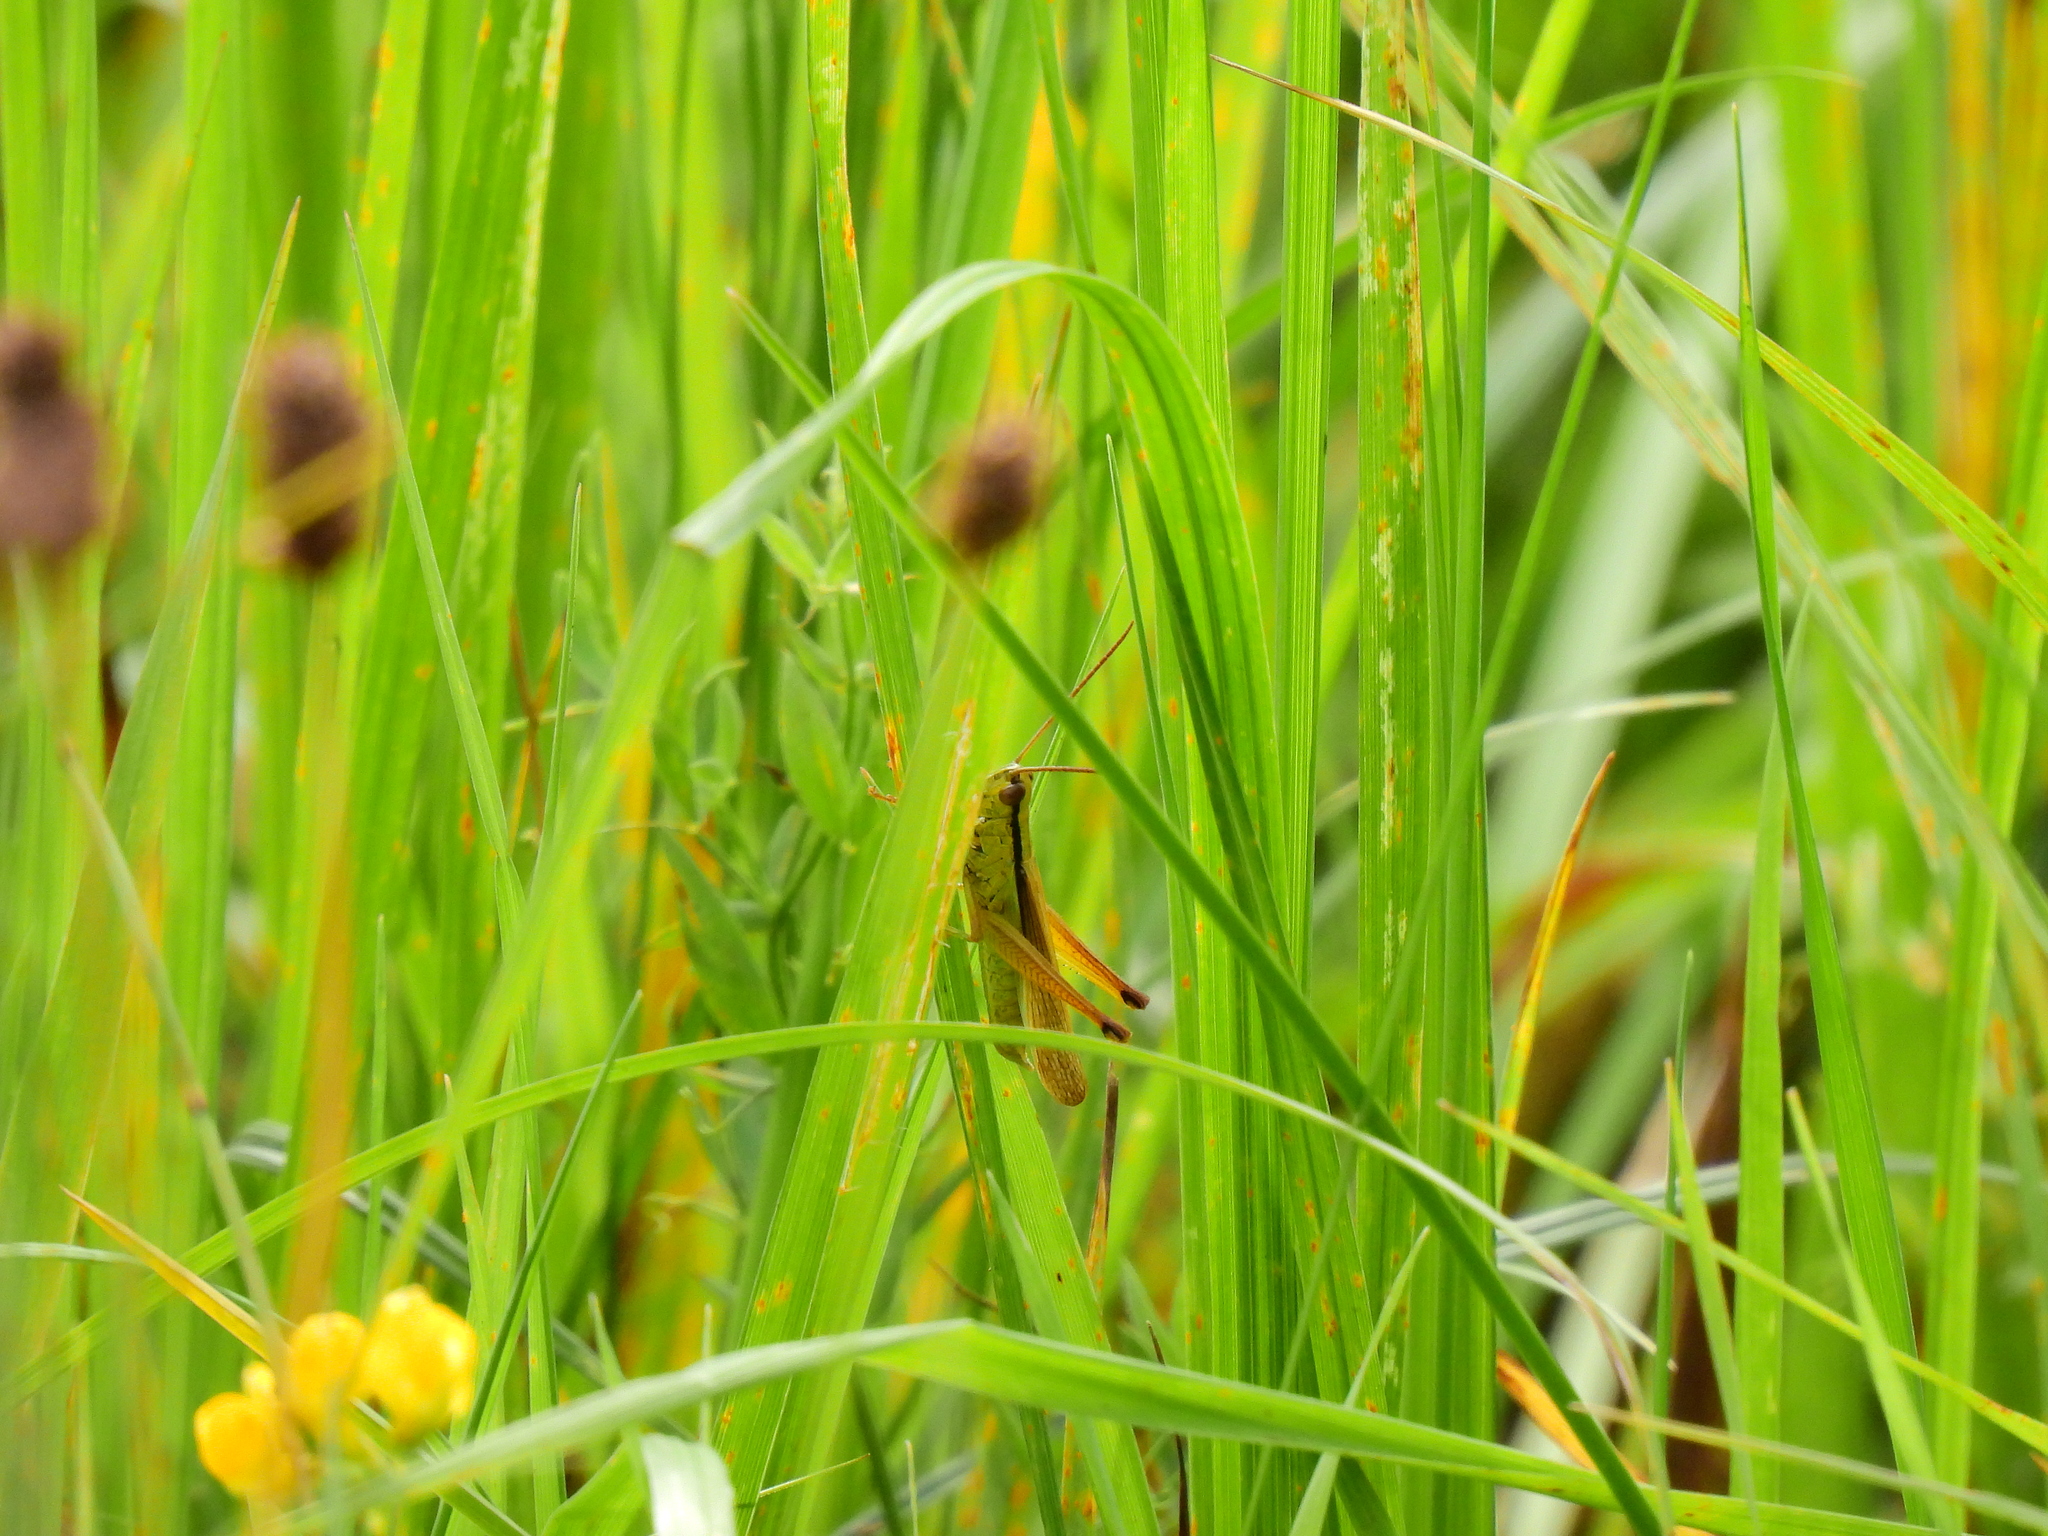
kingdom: Animalia
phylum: Arthropoda
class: Insecta
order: Orthoptera
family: Acrididae
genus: Mecostethus
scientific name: Mecostethus parapleurus
